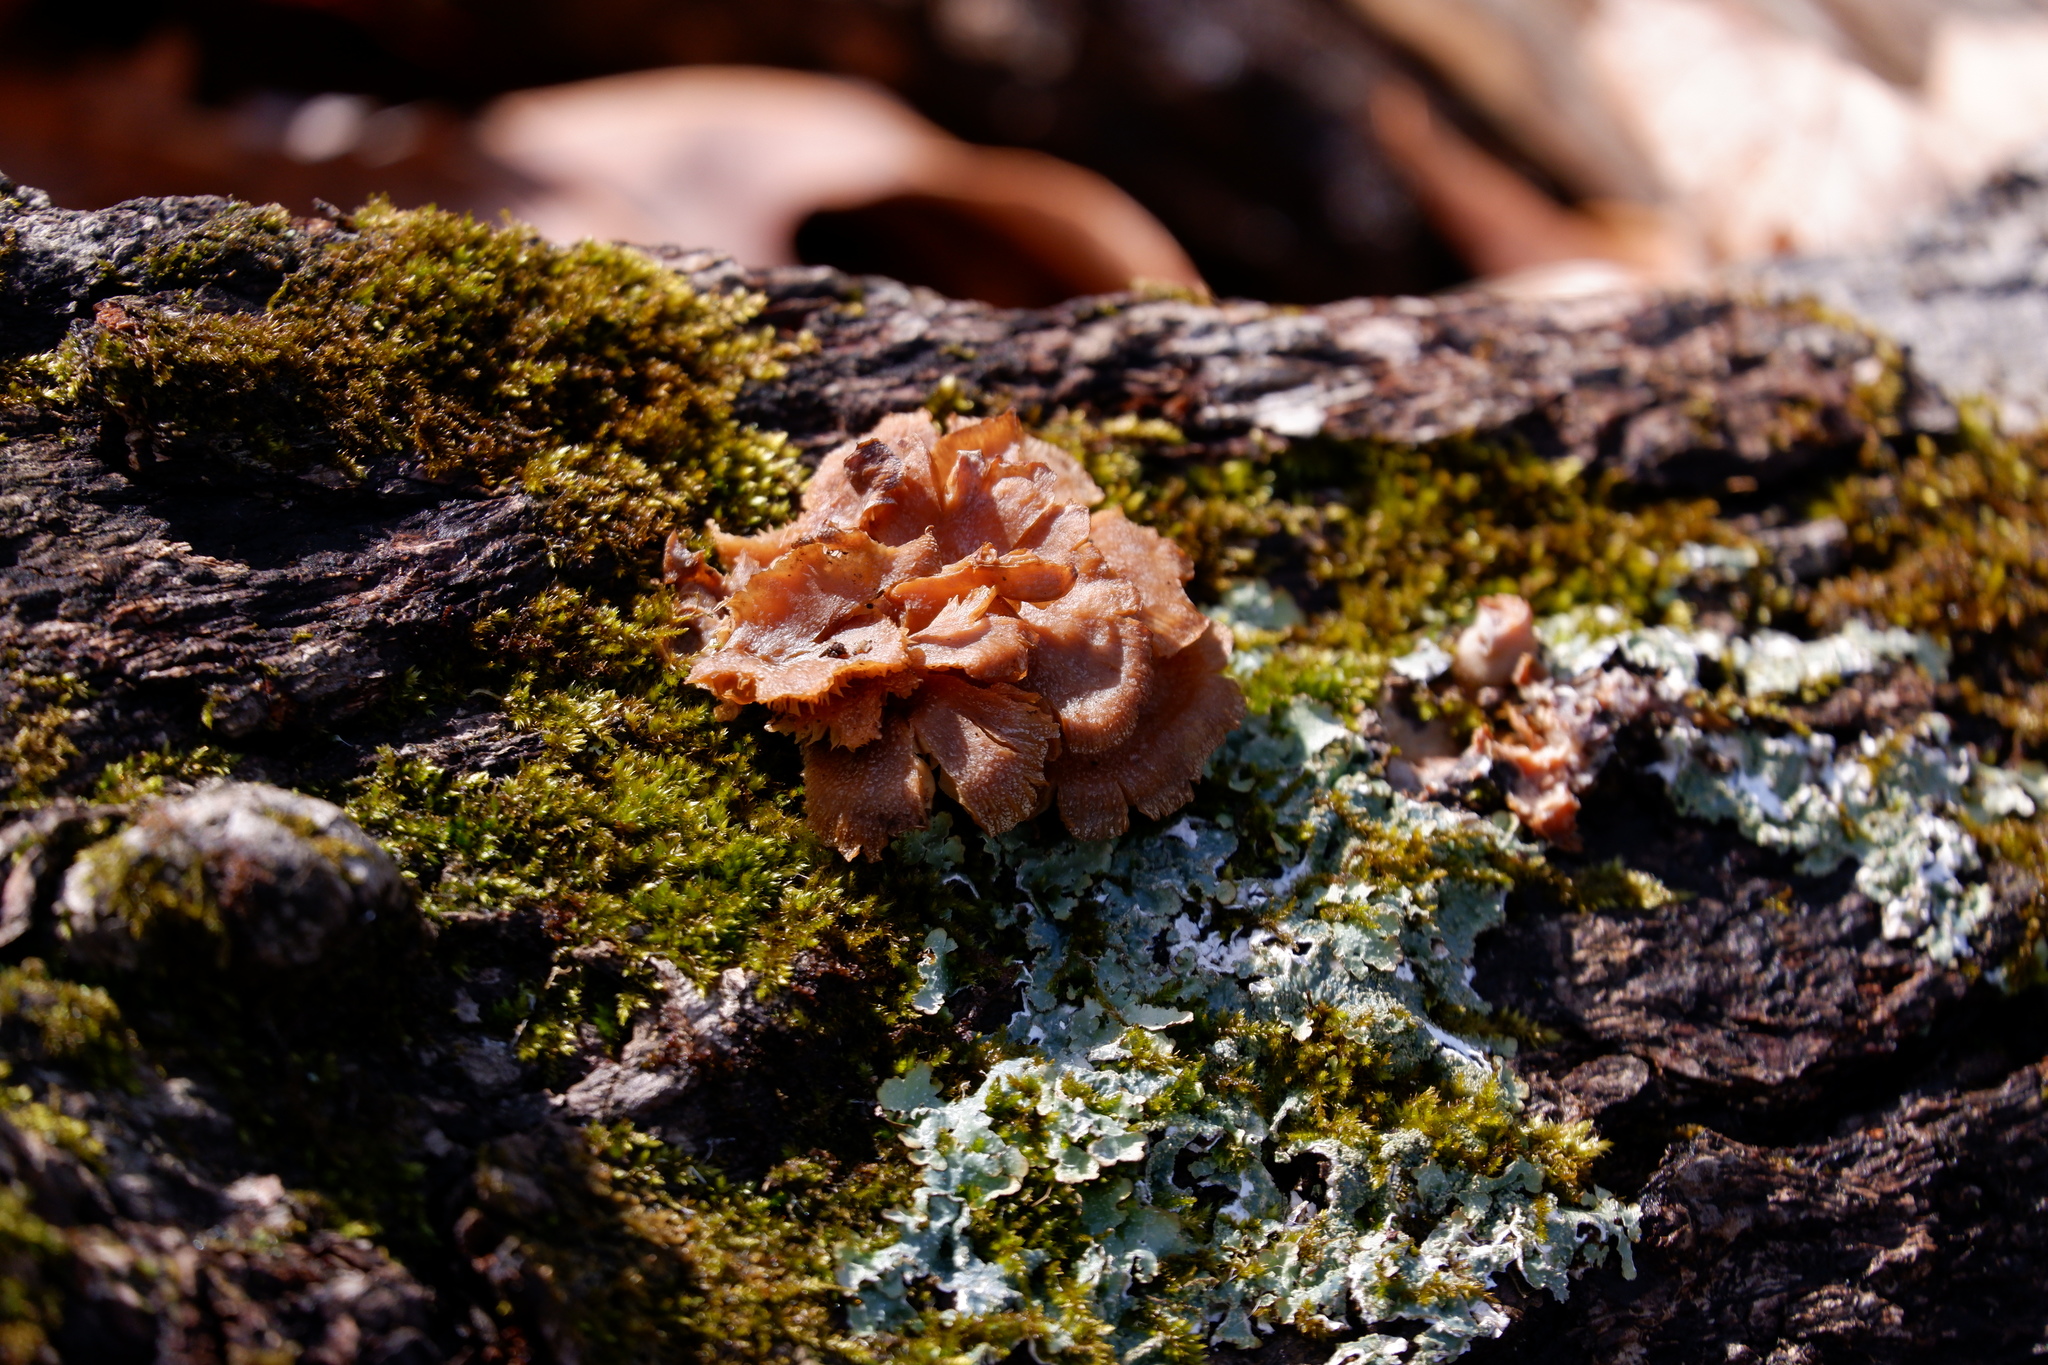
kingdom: Fungi
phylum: Basidiomycota
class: Agaricomycetes
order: Agaricales
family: Mycenaceae
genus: Panellus
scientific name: Panellus stipticus
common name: Bitter oysterling
